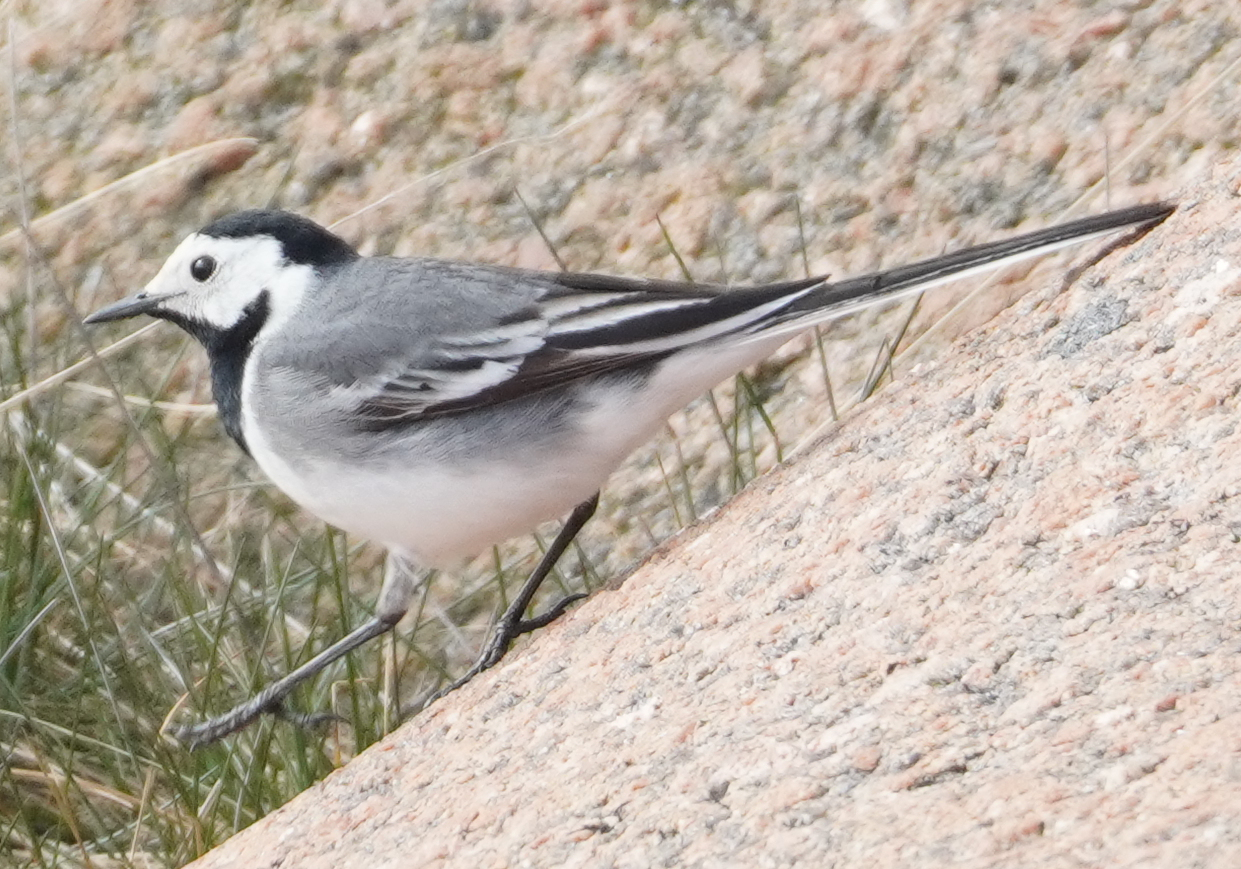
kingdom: Animalia
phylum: Chordata
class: Aves
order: Passeriformes
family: Motacillidae
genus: Motacilla
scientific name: Motacilla alba
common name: White wagtail
